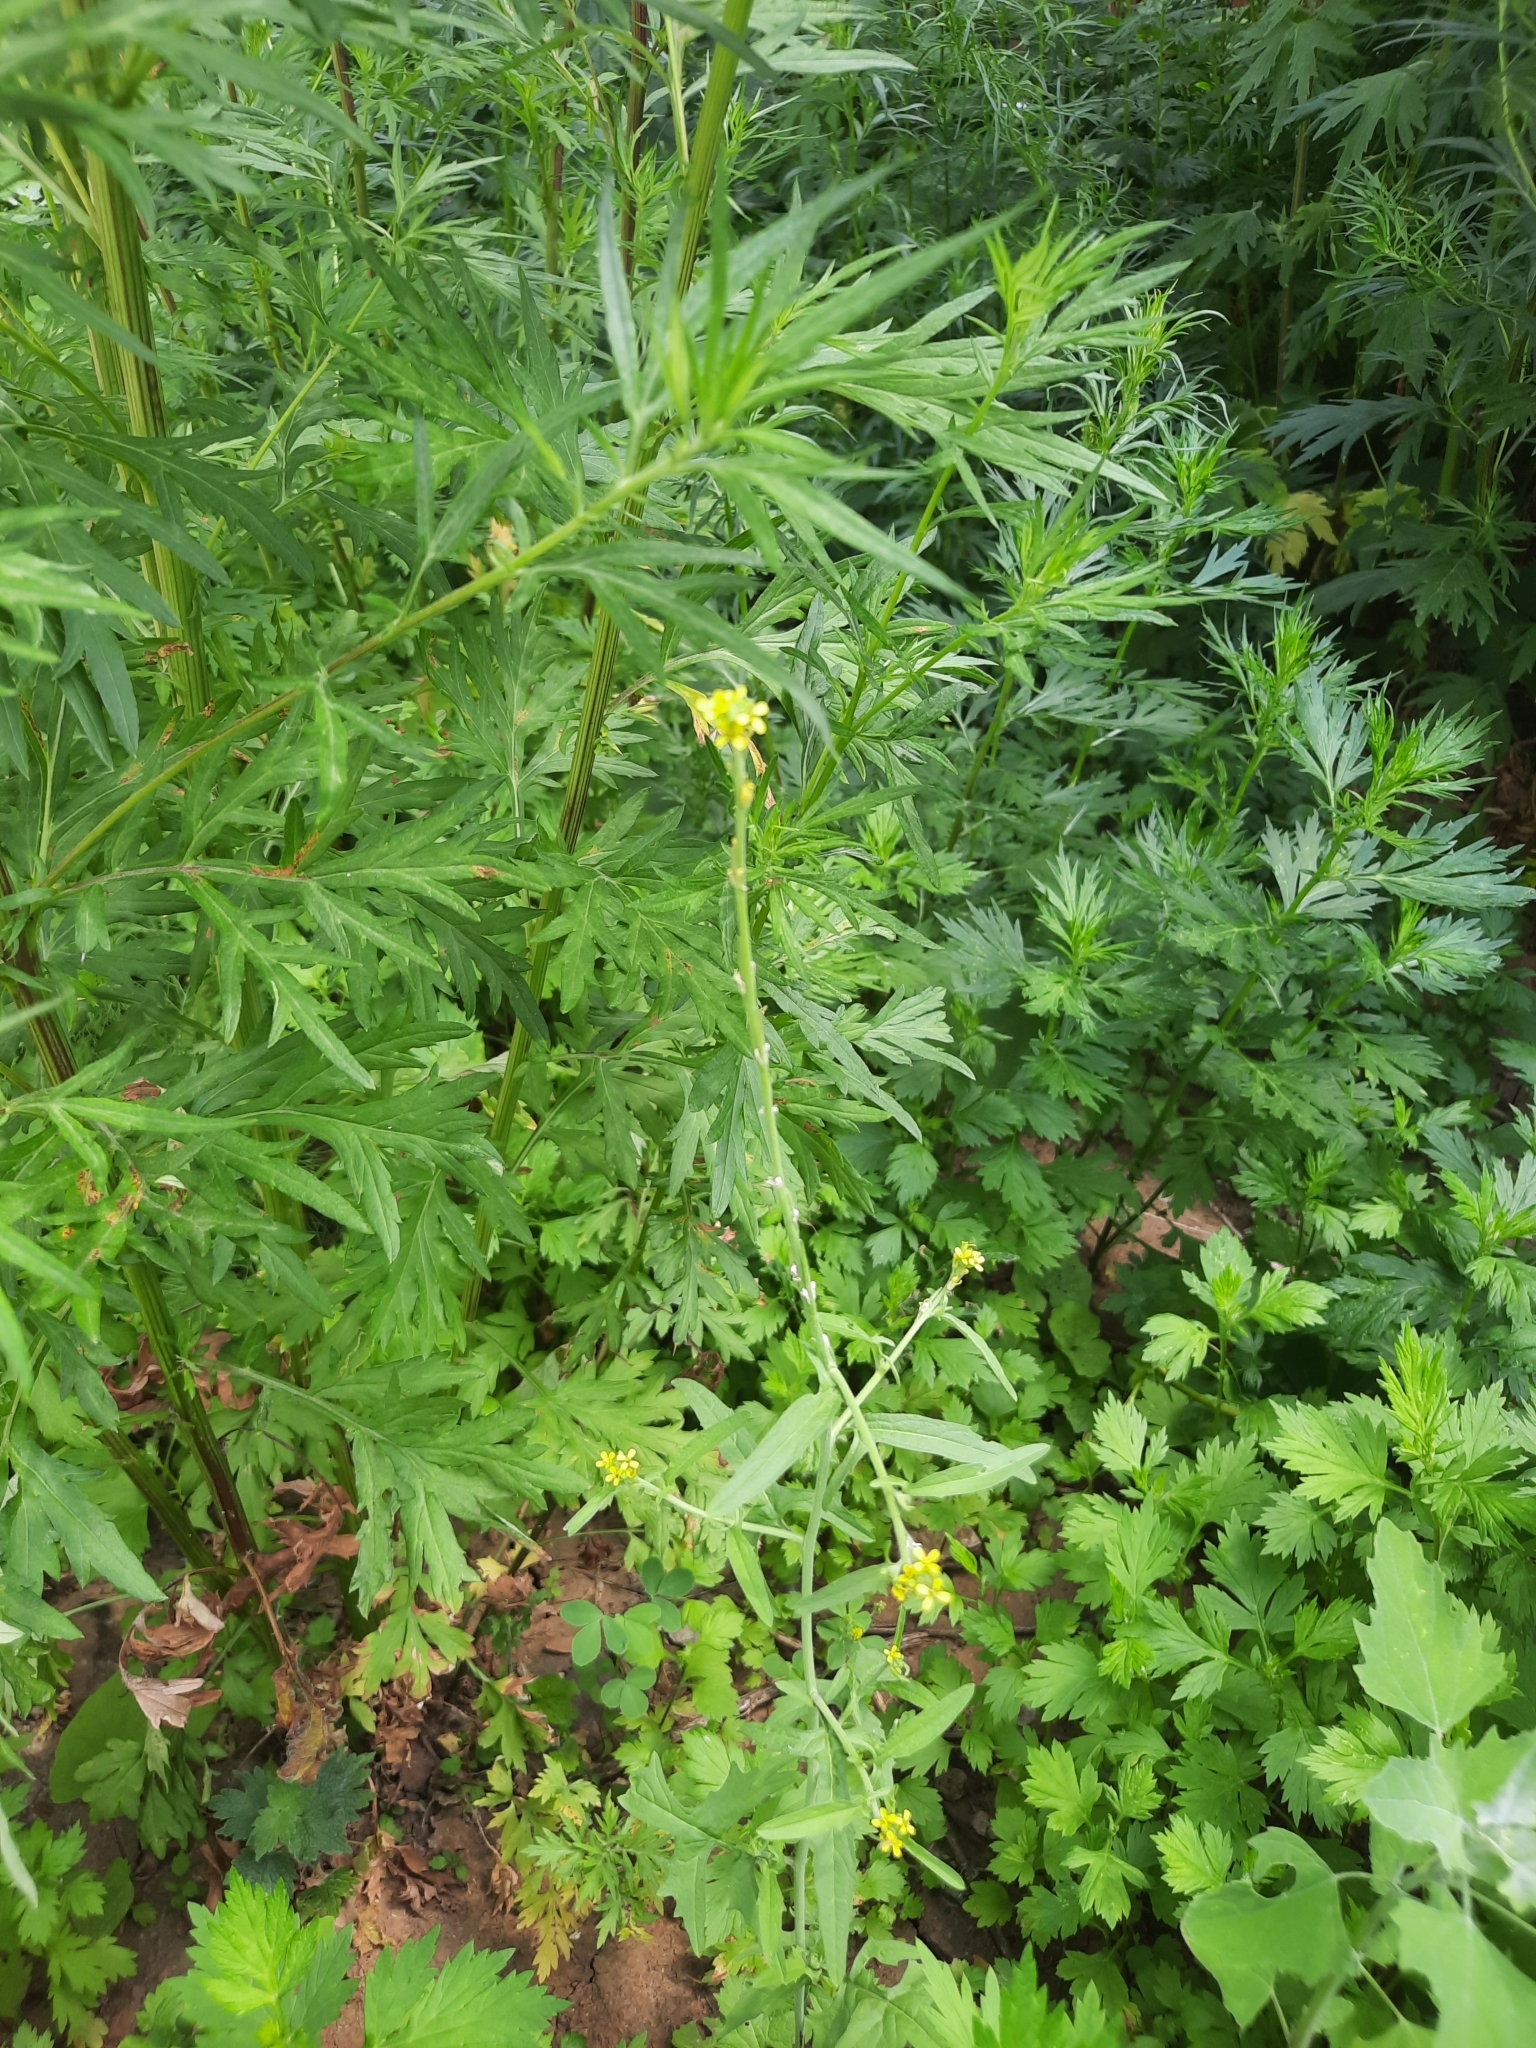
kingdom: Plantae
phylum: Tracheophyta
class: Magnoliopsida
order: Brassicales
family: Brassicaceae
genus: Sisymbrium
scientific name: Sisymbrium officinale
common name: Hedge mustard
